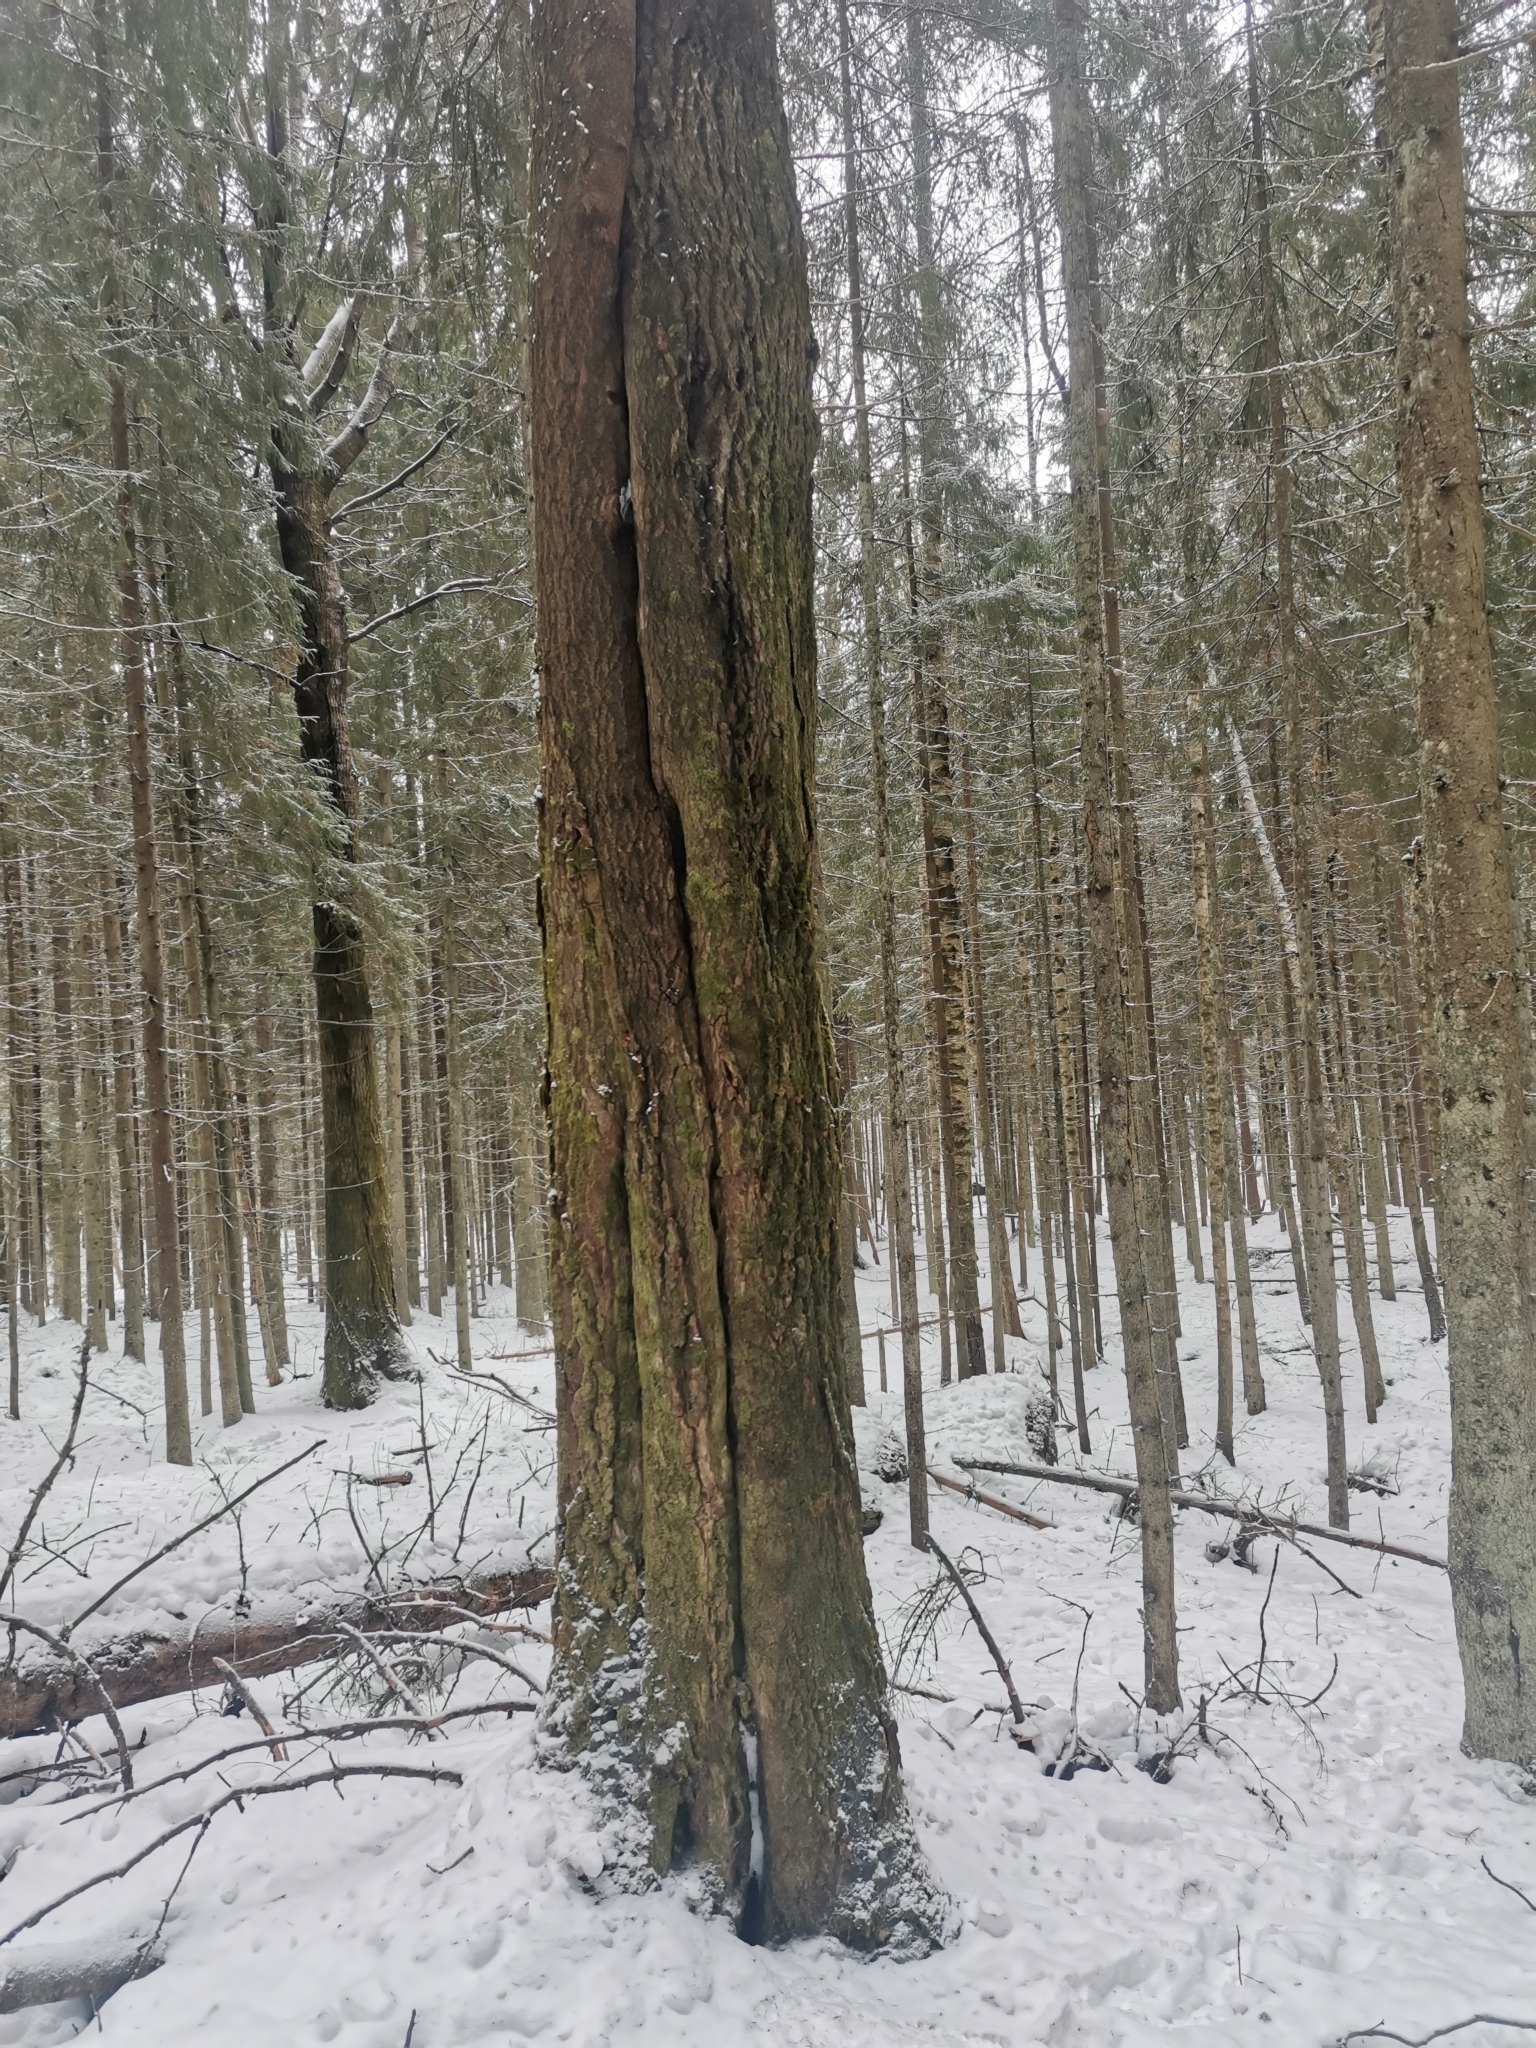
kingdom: Animalia
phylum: Chordata
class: Mammalia
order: Rodentia
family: Sciuridae
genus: Pteromys
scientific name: Pteromys volans
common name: Siberian flying squirrel
